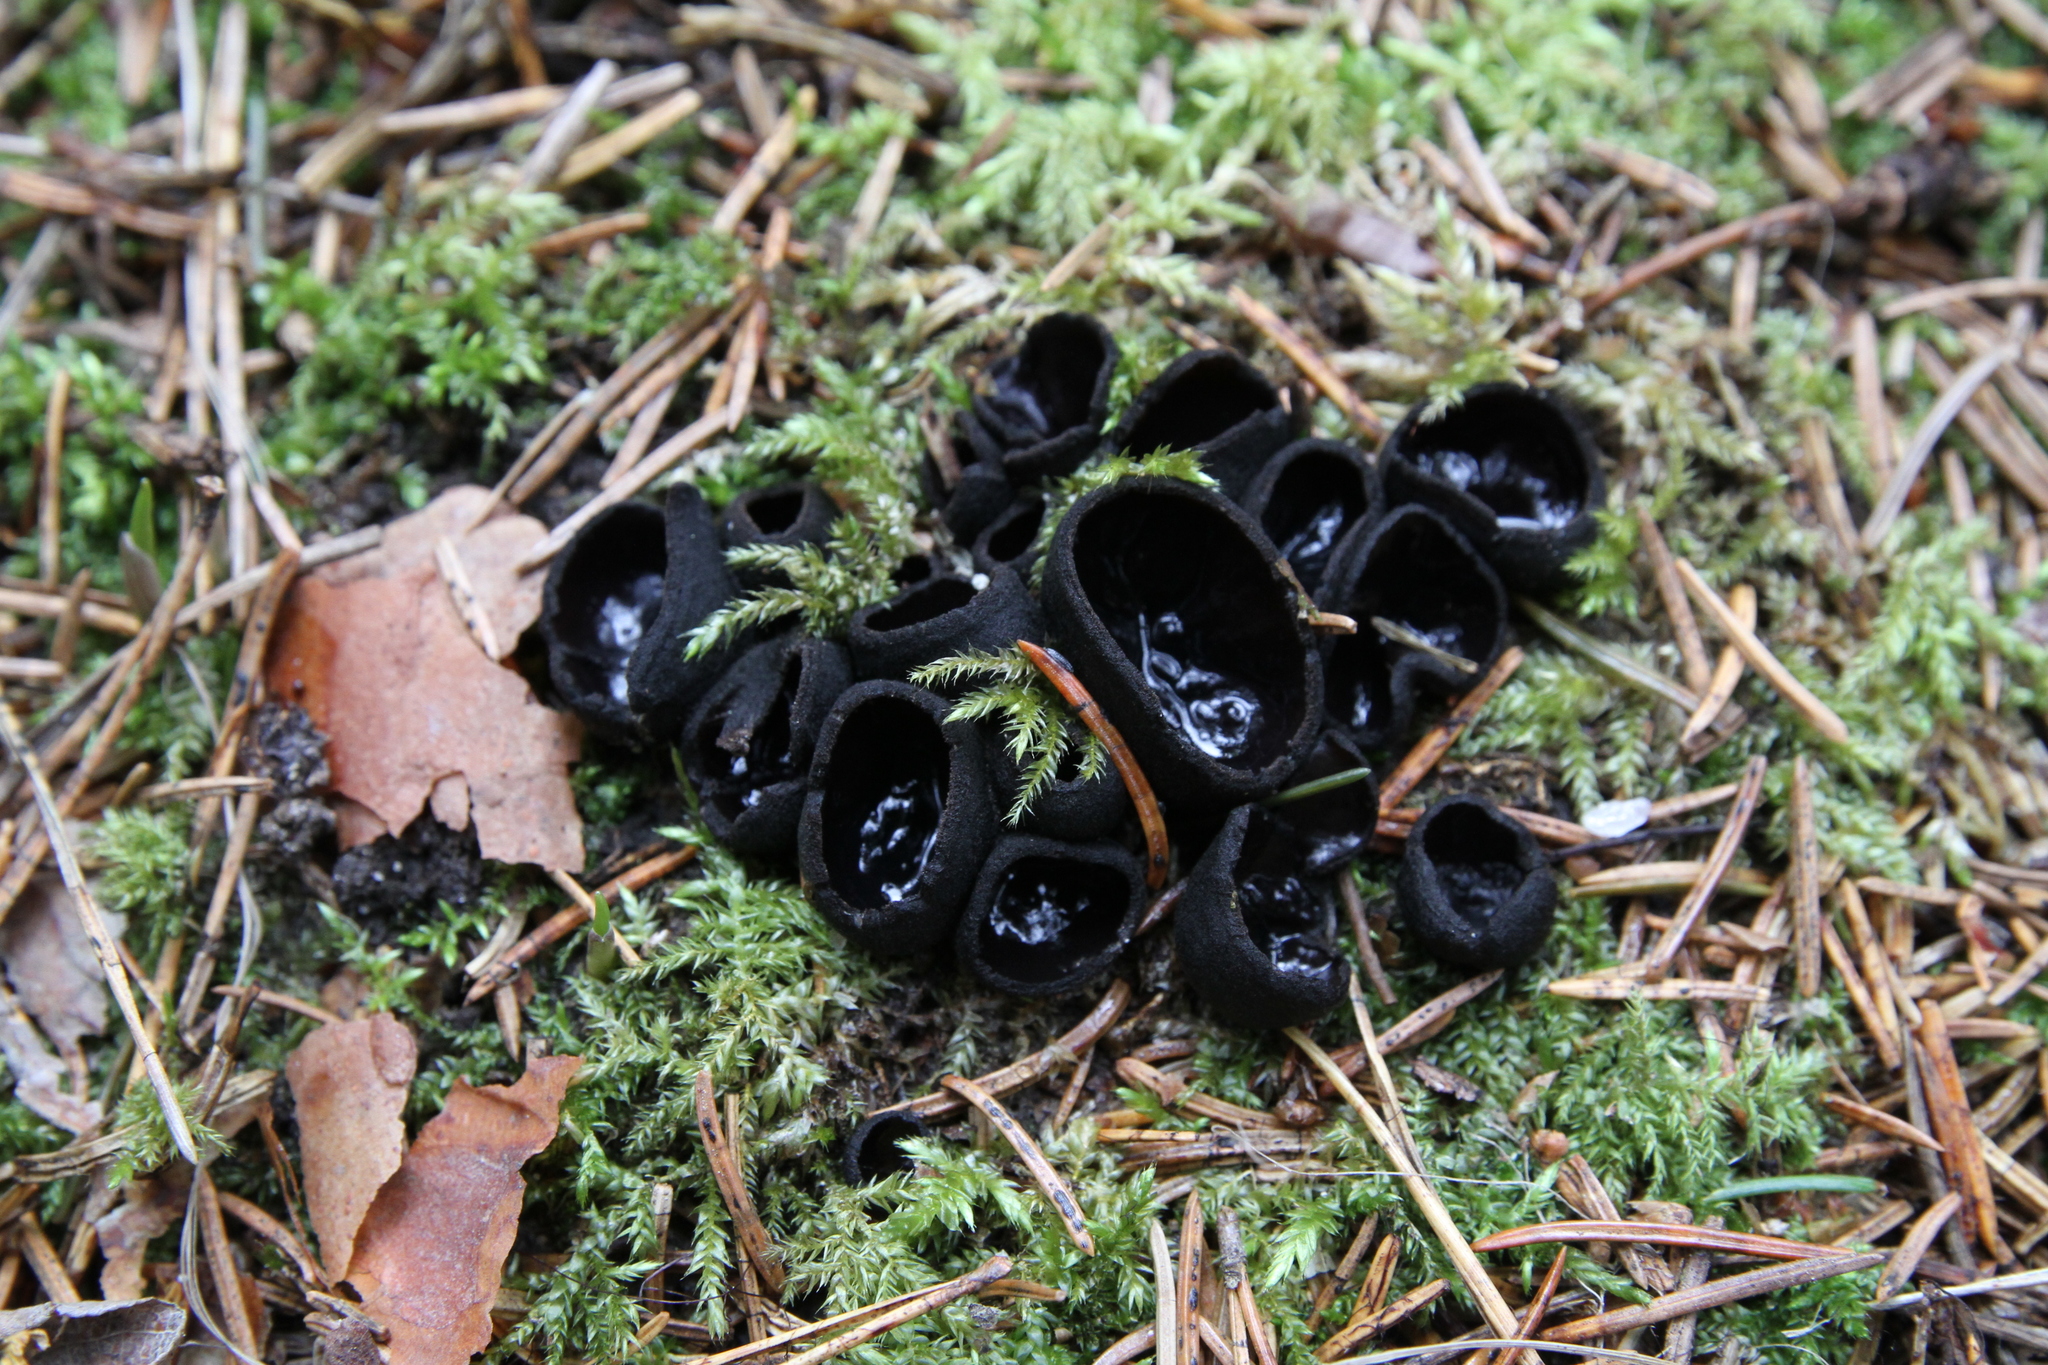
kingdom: Fungi
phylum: Ascomycota
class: Pezizomycetes
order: Pezizales
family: Sarcosomataceae
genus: Pseudoplectania
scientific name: Pseudoplectania nigrella
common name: Ebony cup
